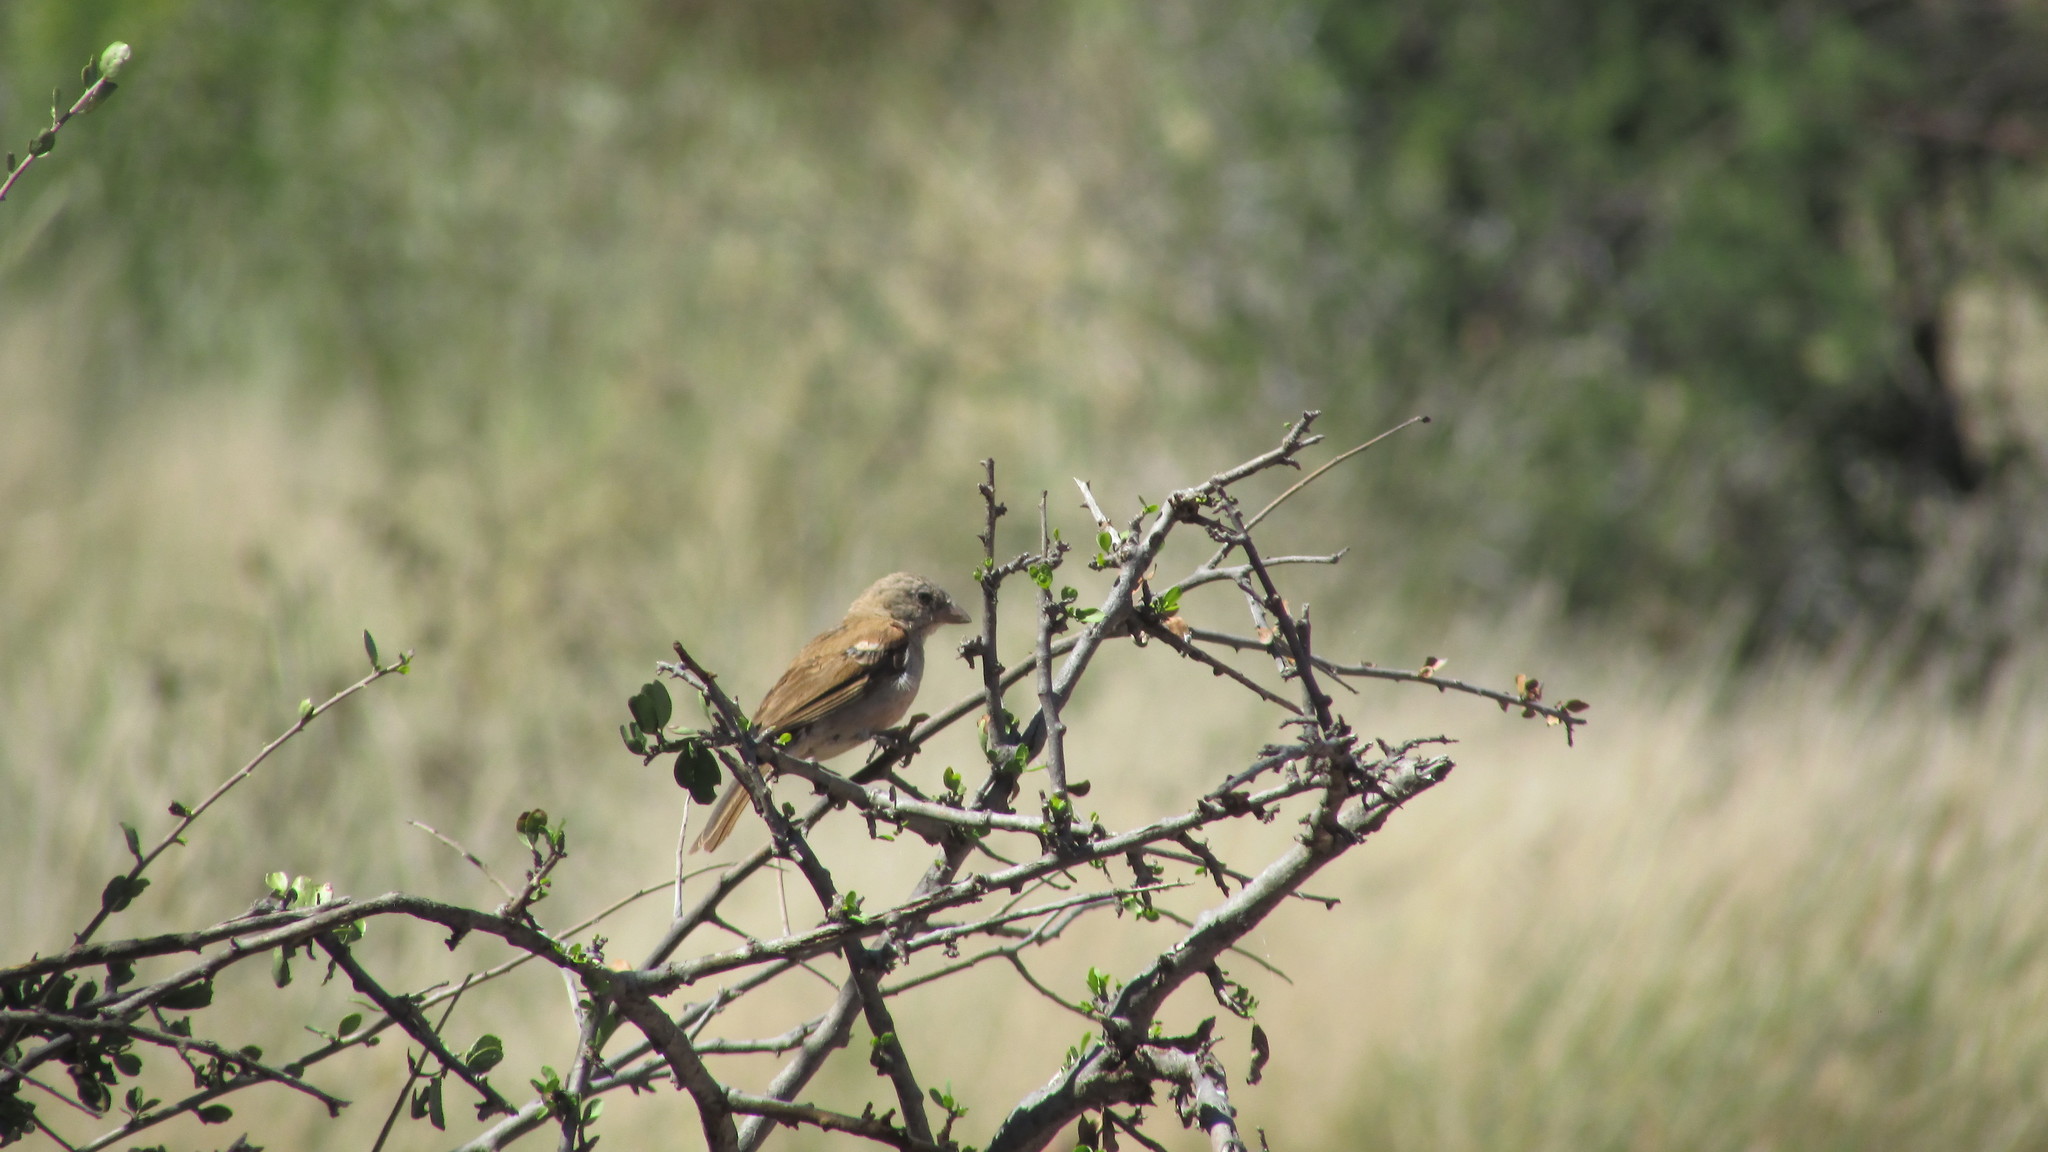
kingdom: Animalia
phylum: Chordata
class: Aves
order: Passeriformes
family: Passeridae
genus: Passer
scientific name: Passer diffusus
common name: Southern grey-headed sparrow
